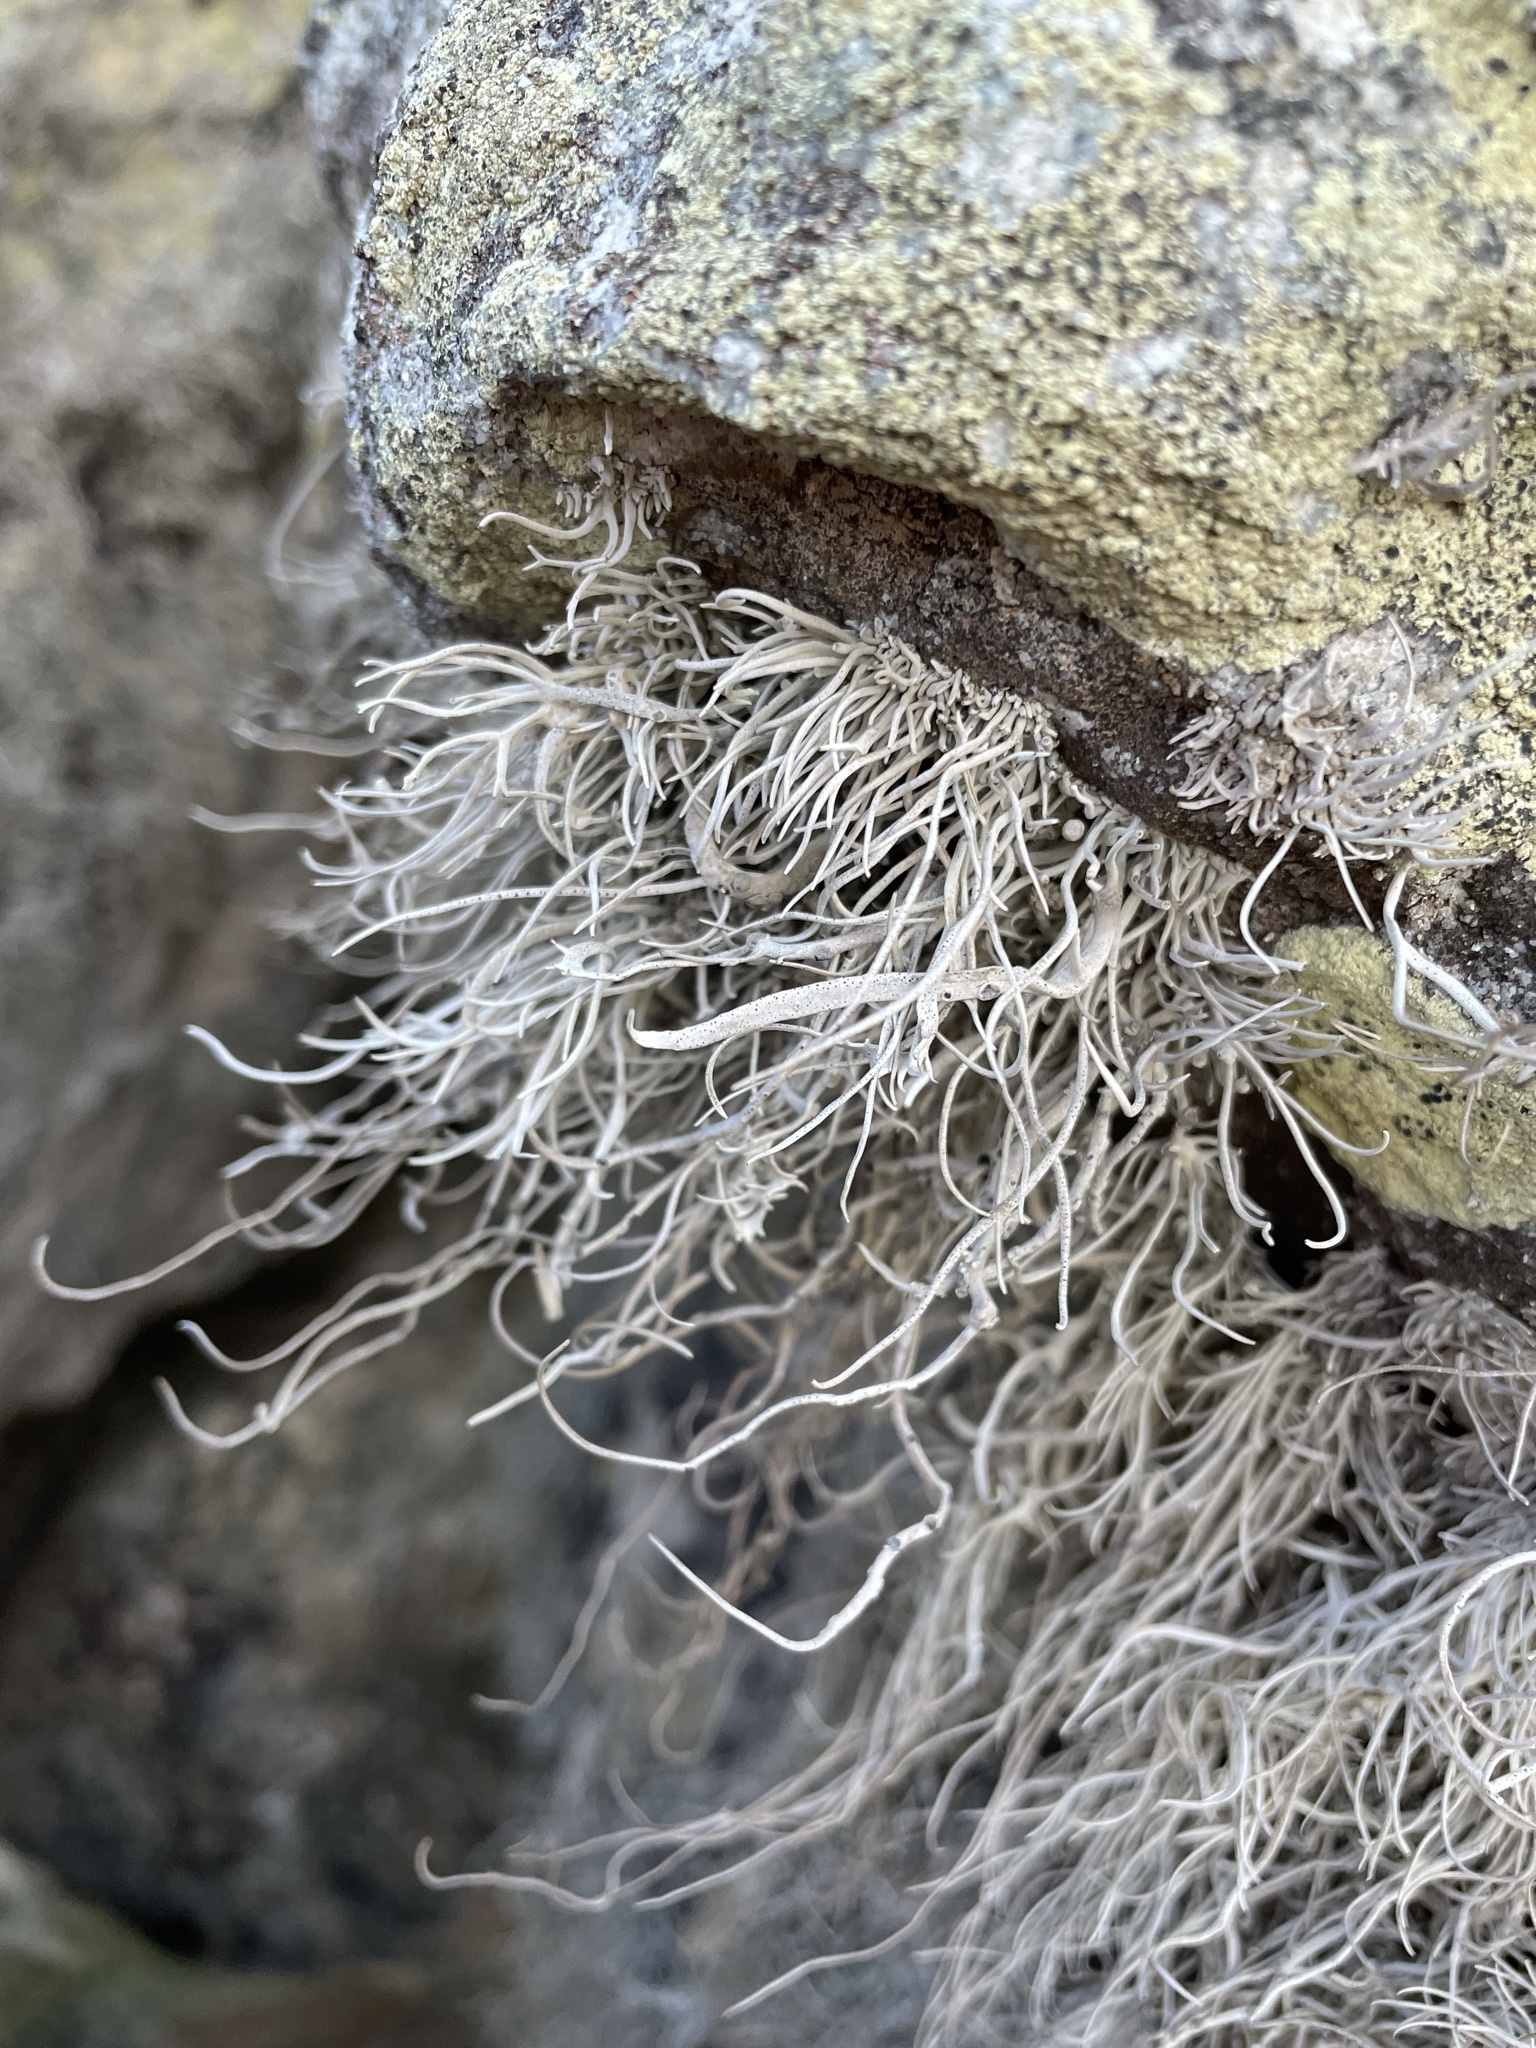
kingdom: Fungi
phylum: Ascomycota
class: Arthoniomycetes
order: Arthoniales
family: Roccellaceae
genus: Roccellina
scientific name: Roccellina hypomecha
